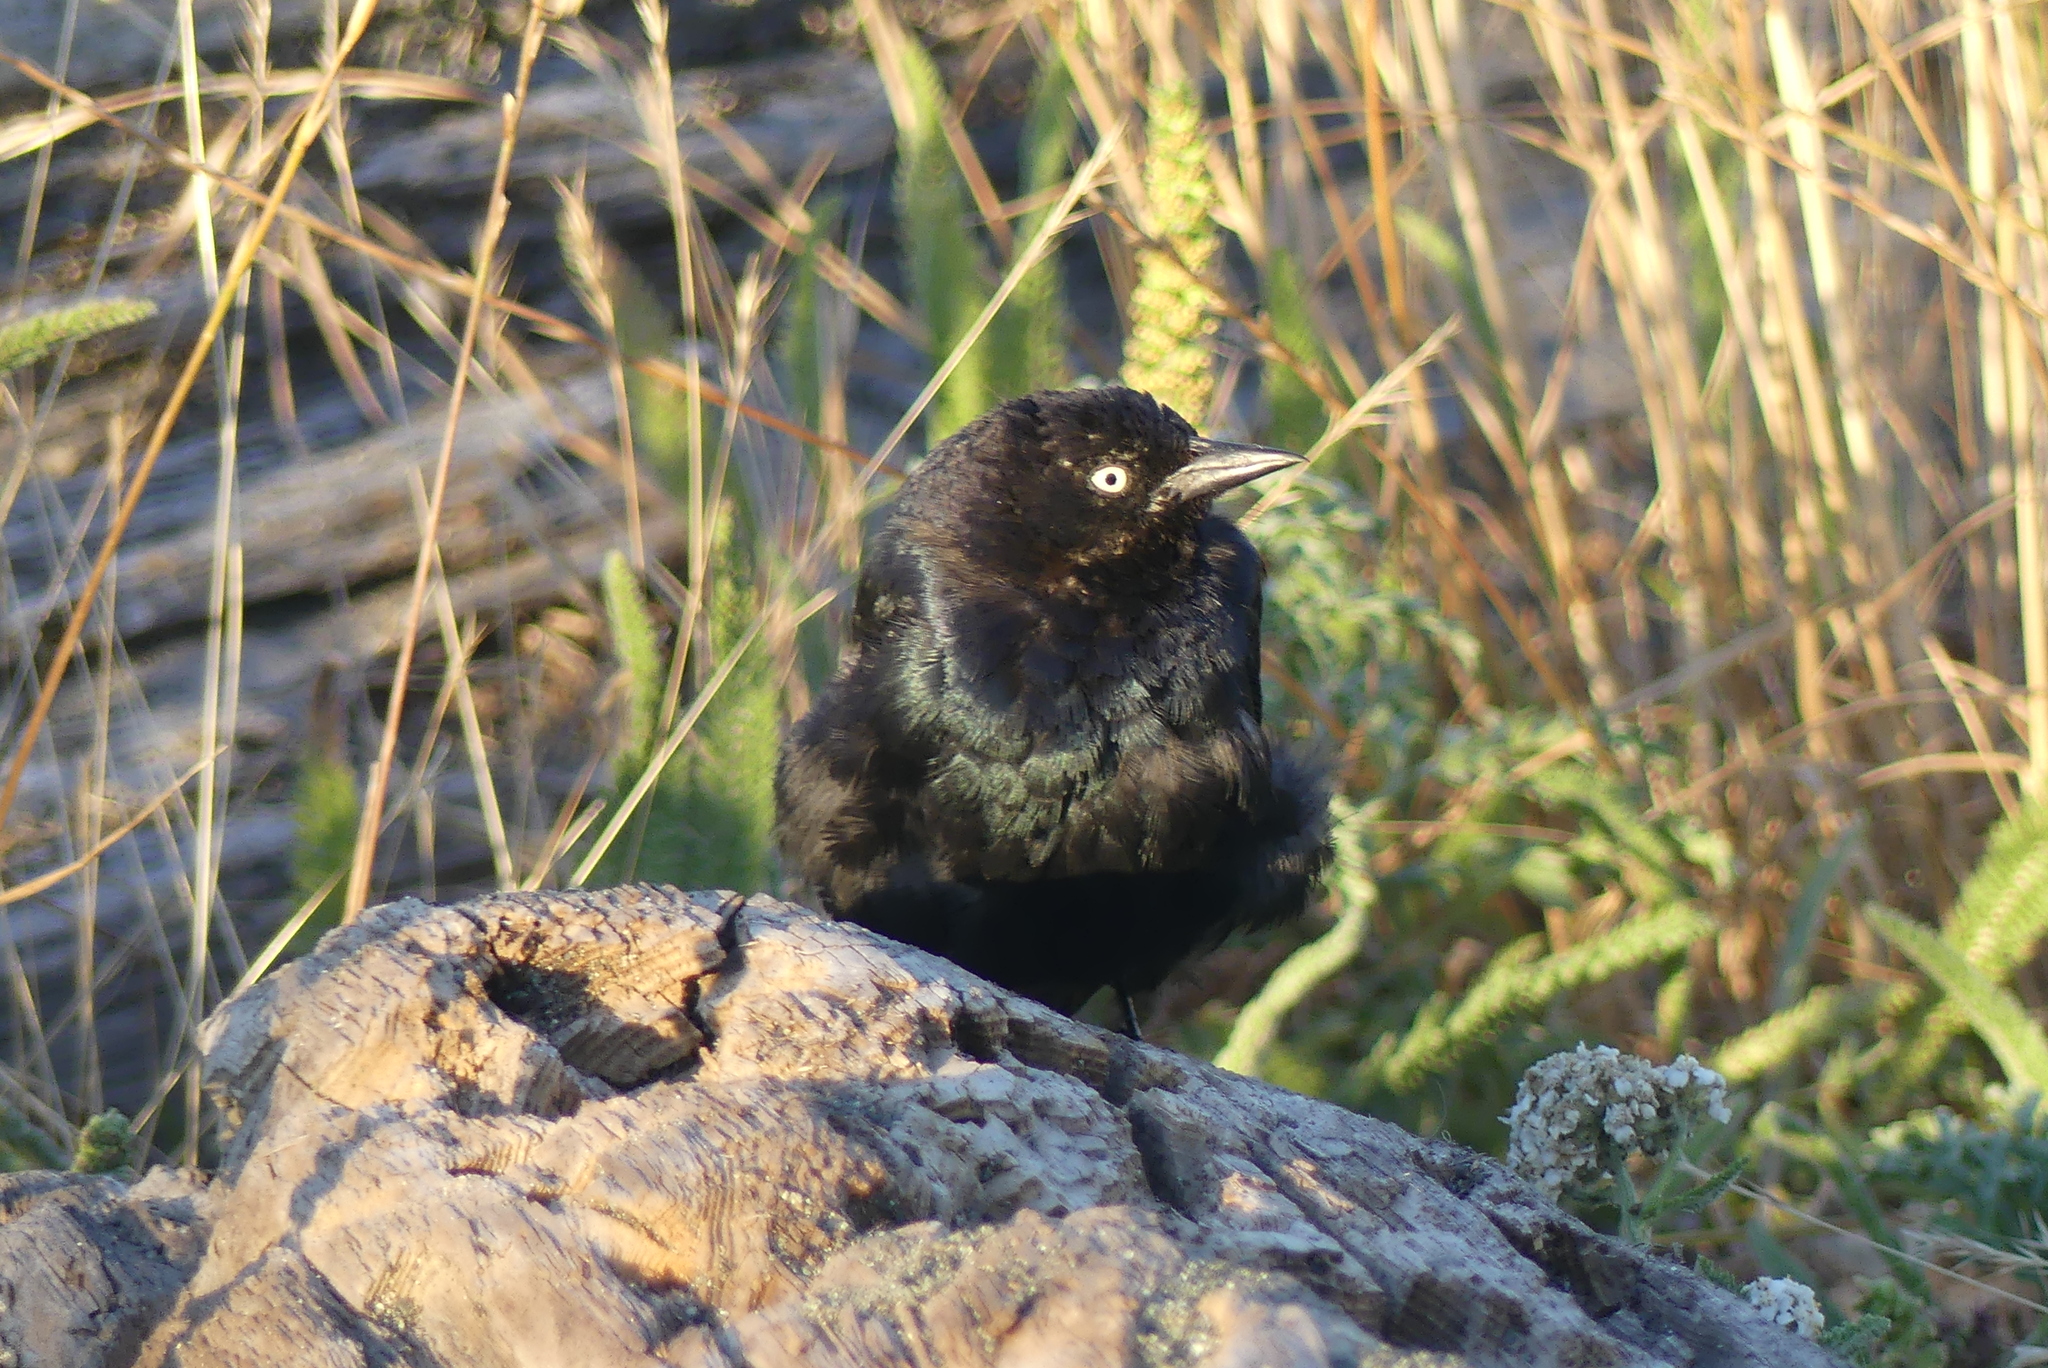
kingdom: Animalia
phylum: Chordata
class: Aves
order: Passeriformes
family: Icteridae
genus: Euphagus
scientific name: Euphagus cyanocephalus
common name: Brewer's blackbird
